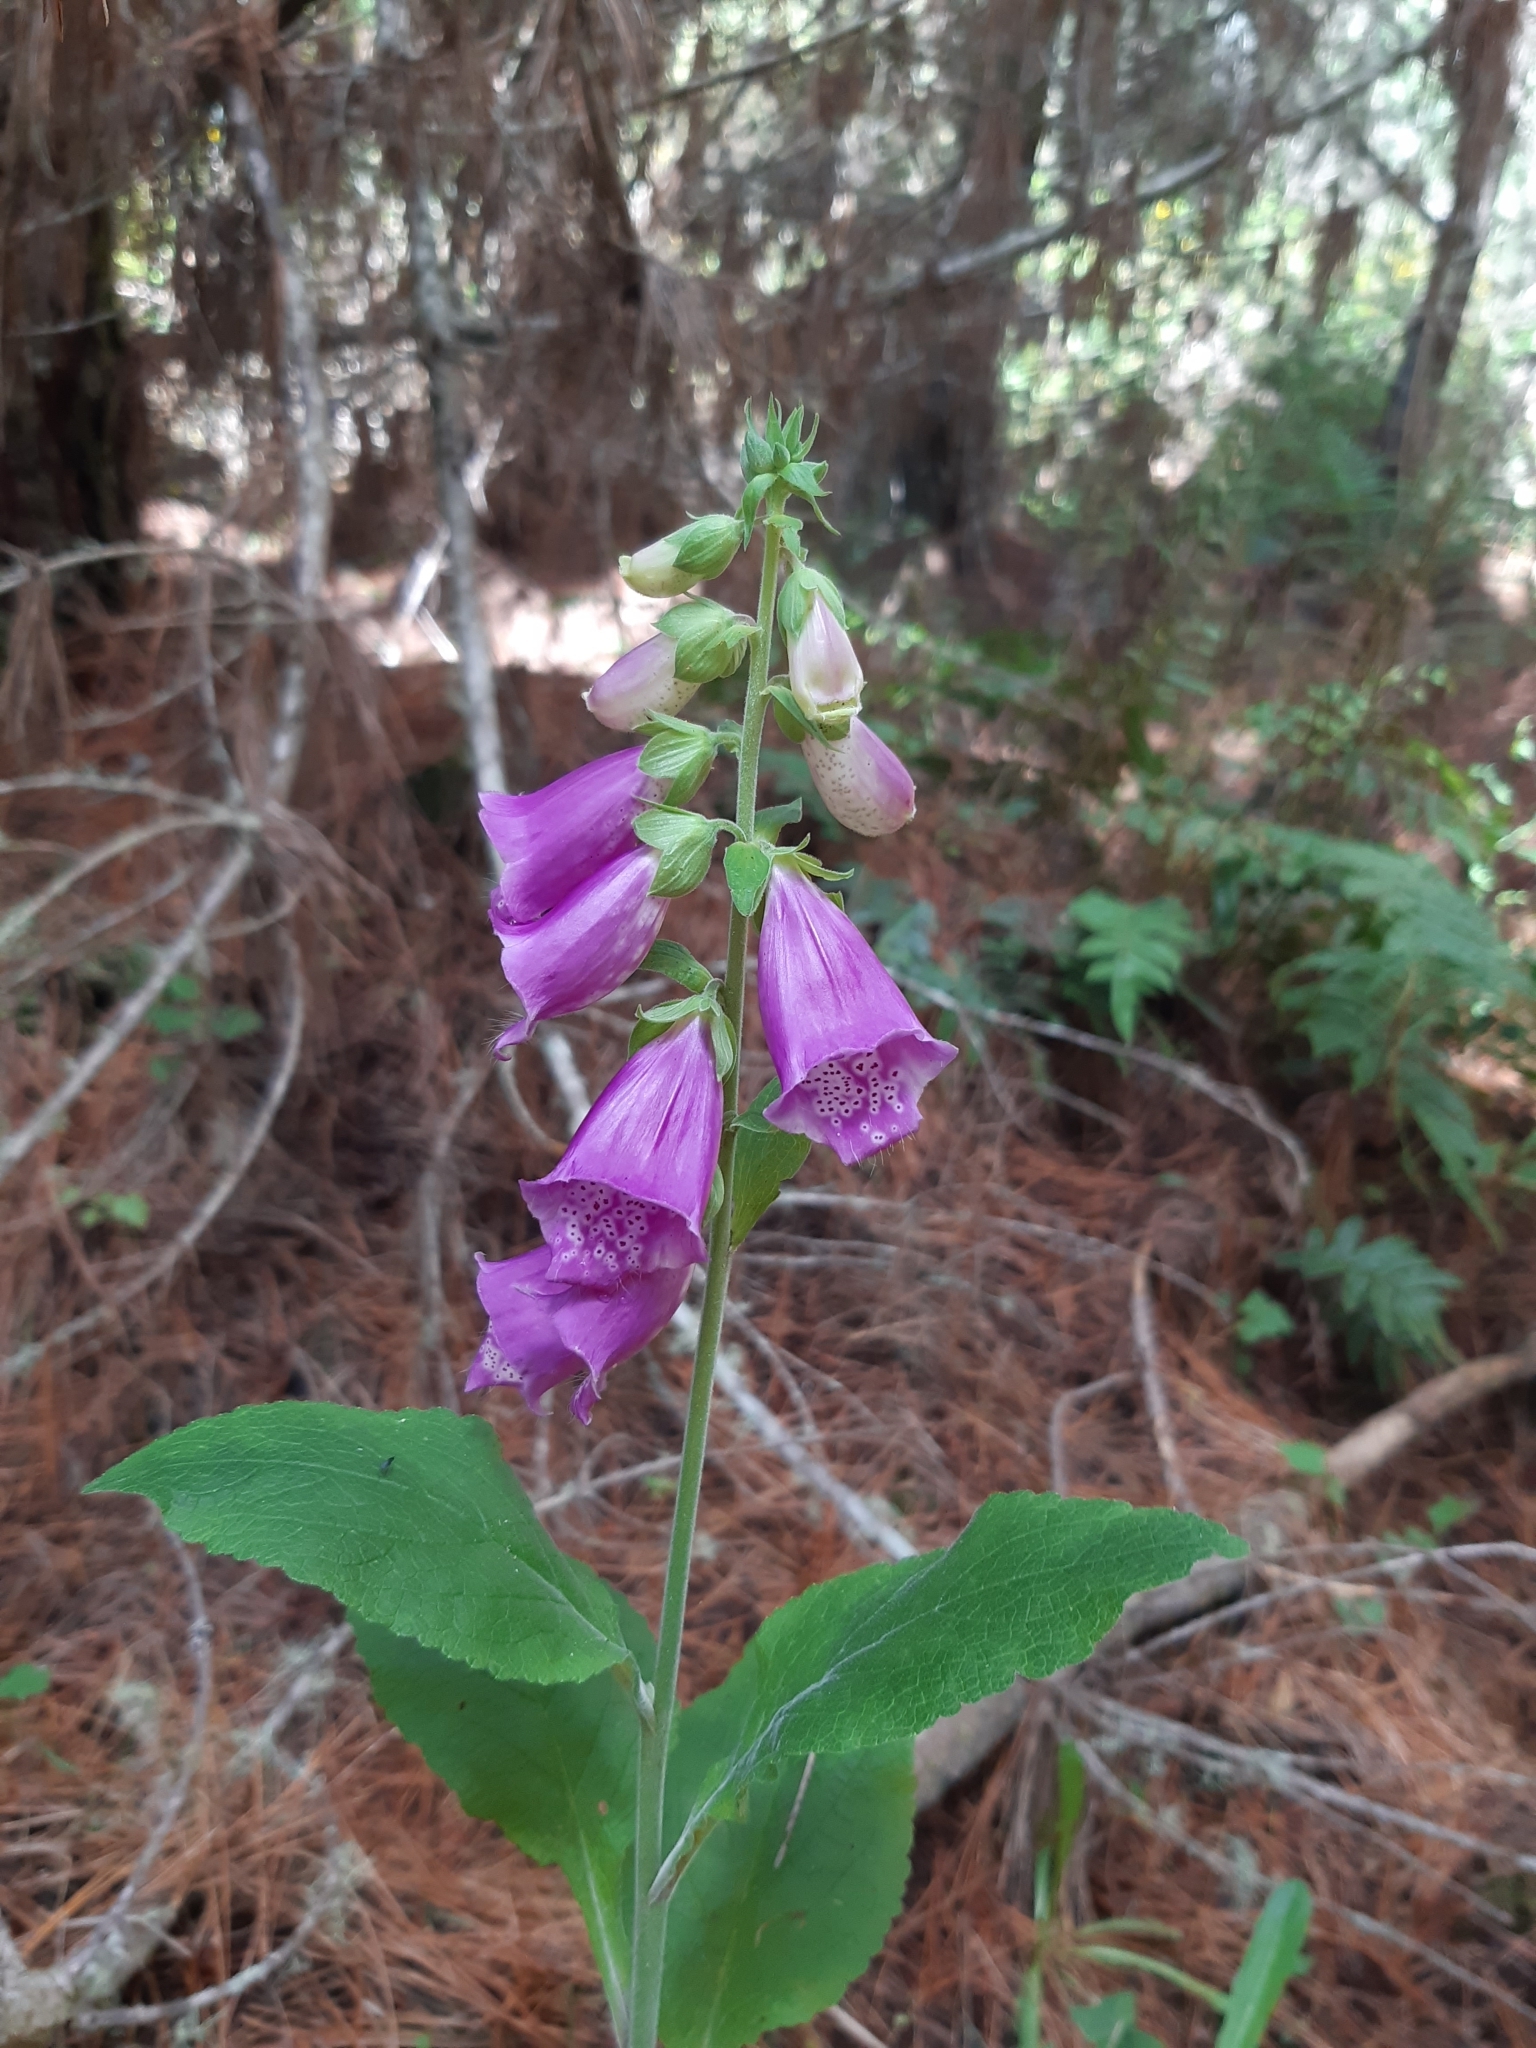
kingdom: Plantae
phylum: Tracheophyta
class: Magnoliopsida
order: Lamiales
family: Plantaginaceae
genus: Digitalis
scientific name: Digitalis purpurea
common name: Foxglove
